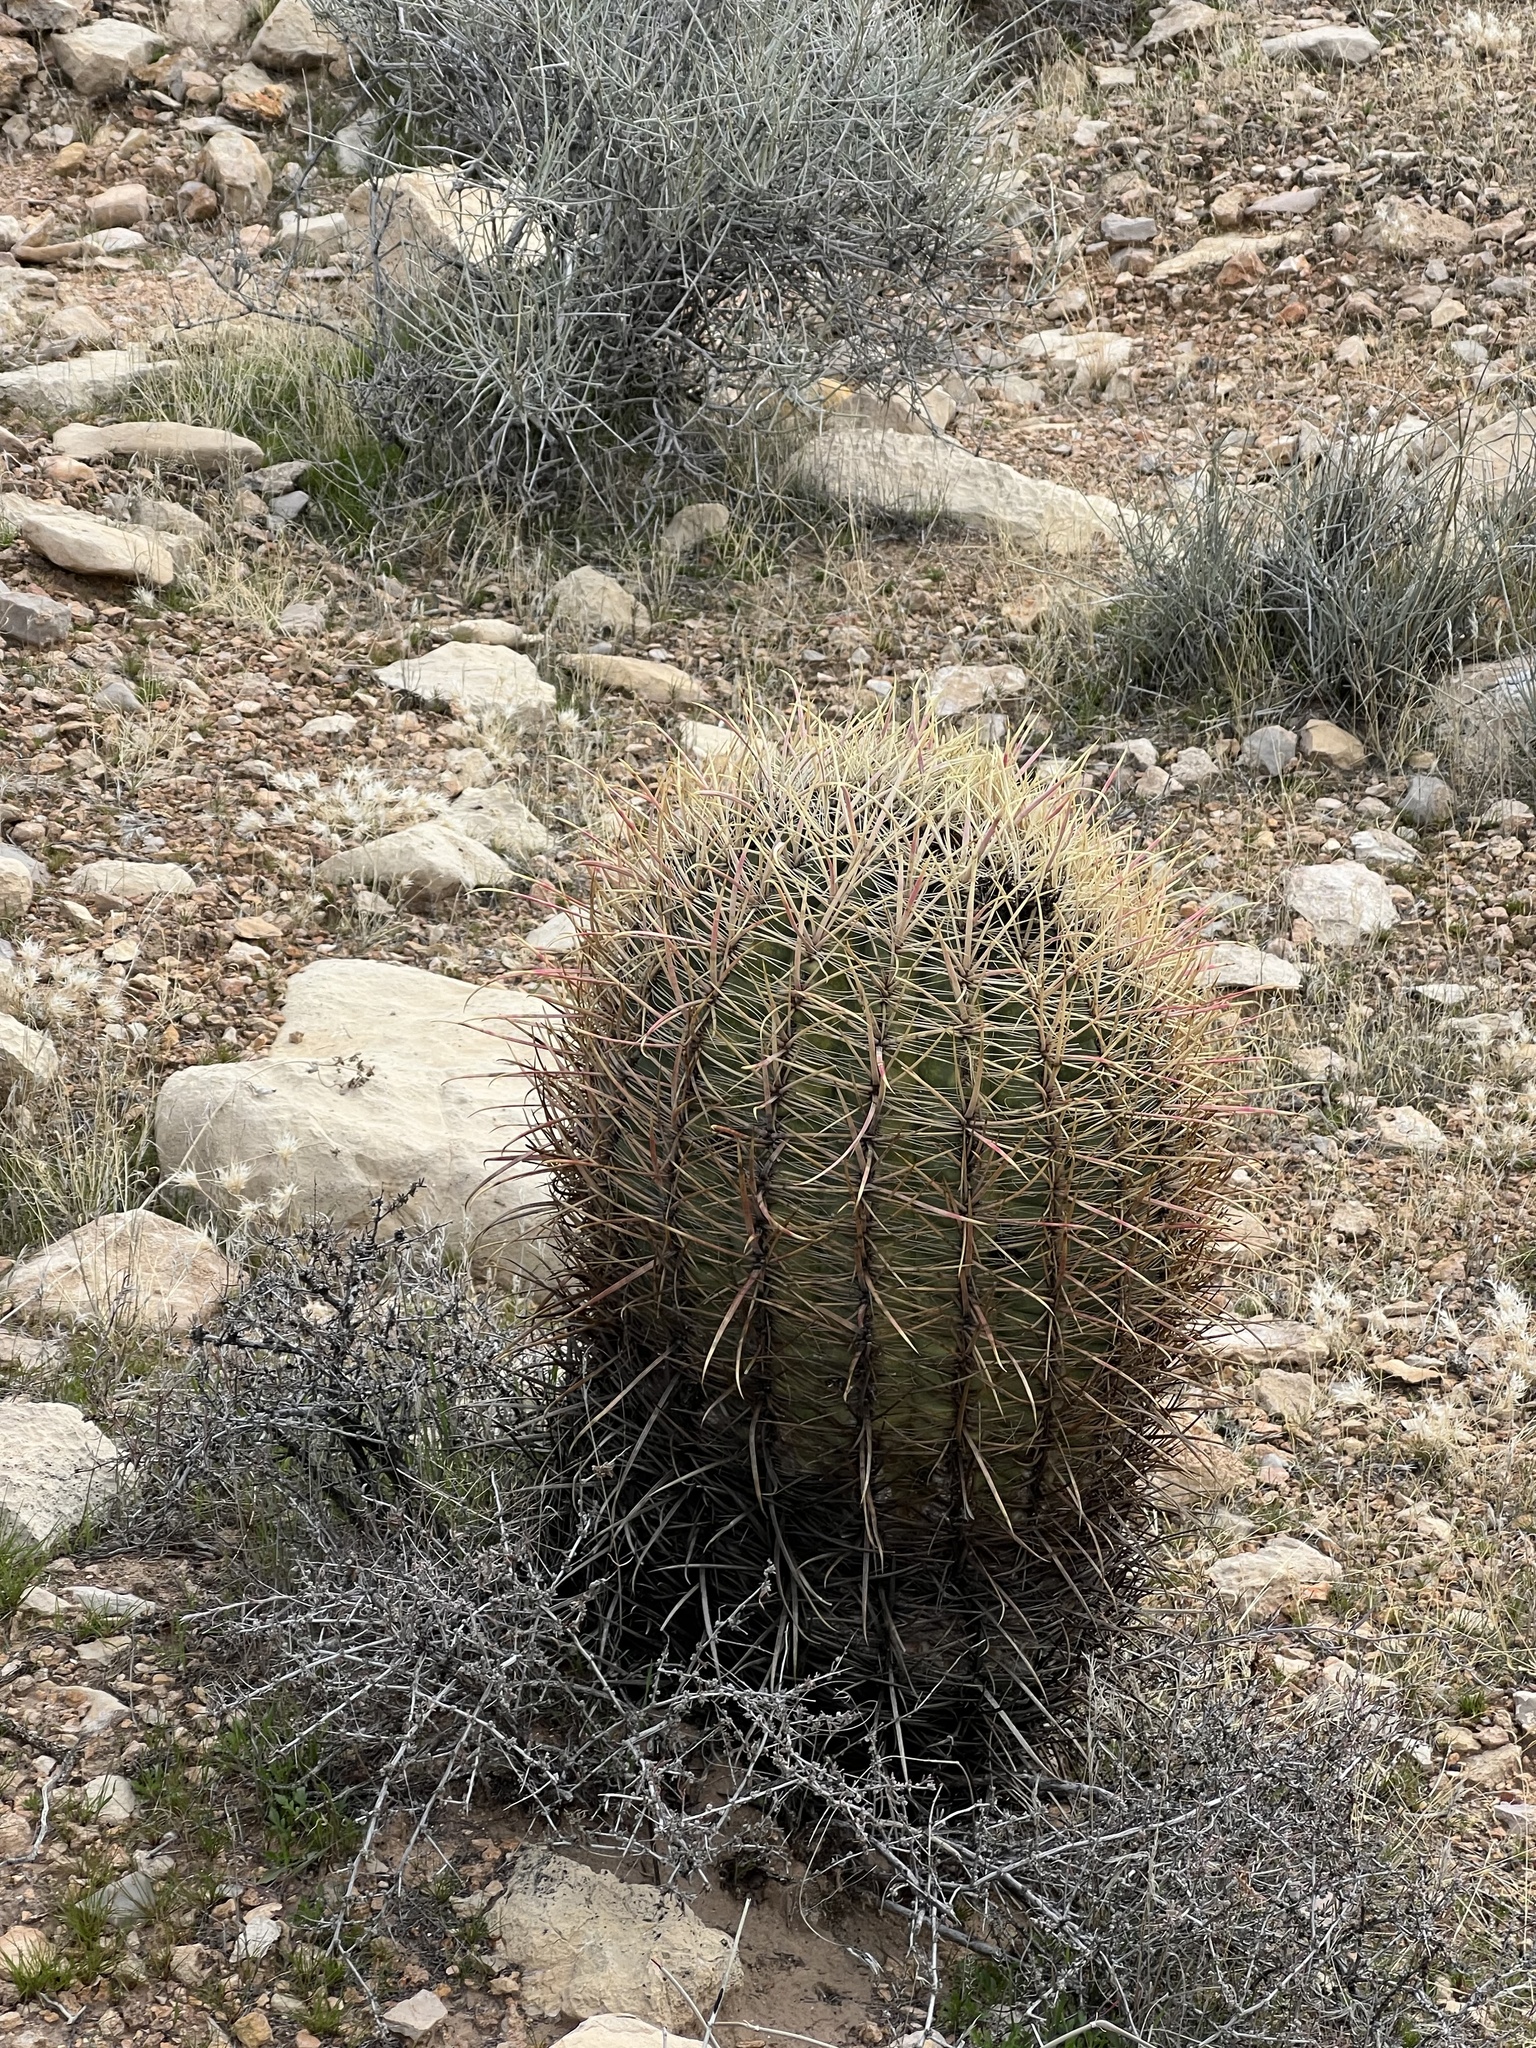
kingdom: Plantae
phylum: Tracheophyta
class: Magnoliopsida
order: Caryophyllales
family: Cactaceae
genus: Ferocactus
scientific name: Ferocactus cylindraceus
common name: California barrel cactus
